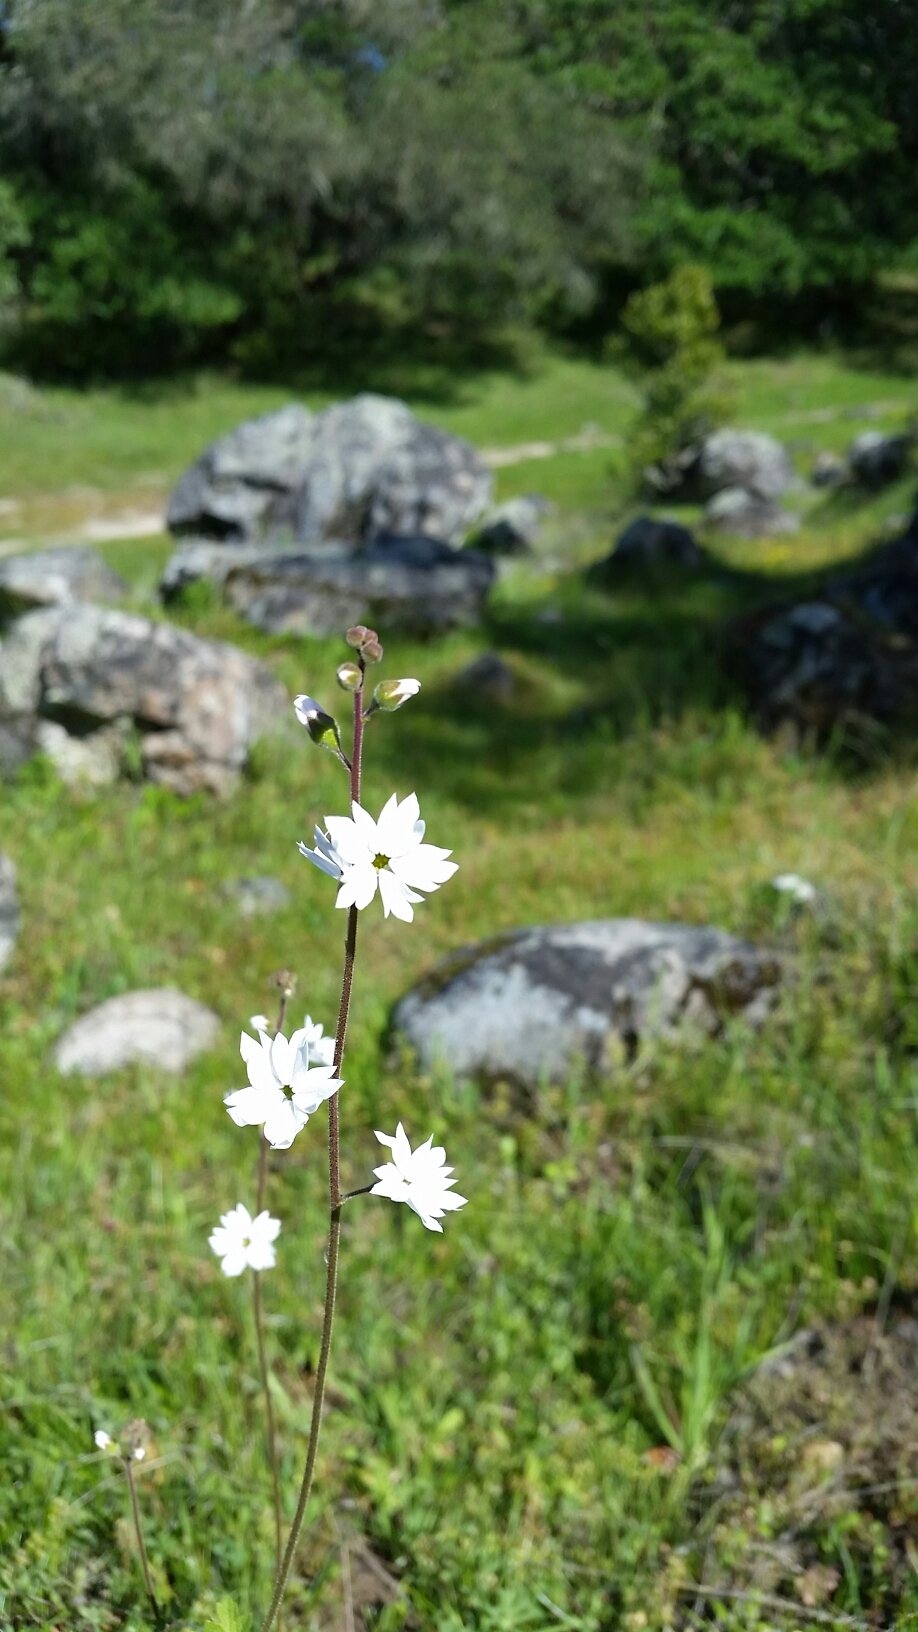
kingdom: Plantae
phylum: Tracheophyta
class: Magnoliopsida
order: Saxifragales
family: Saxifragaceae
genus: Lithophragma
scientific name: Lithophragma affine
